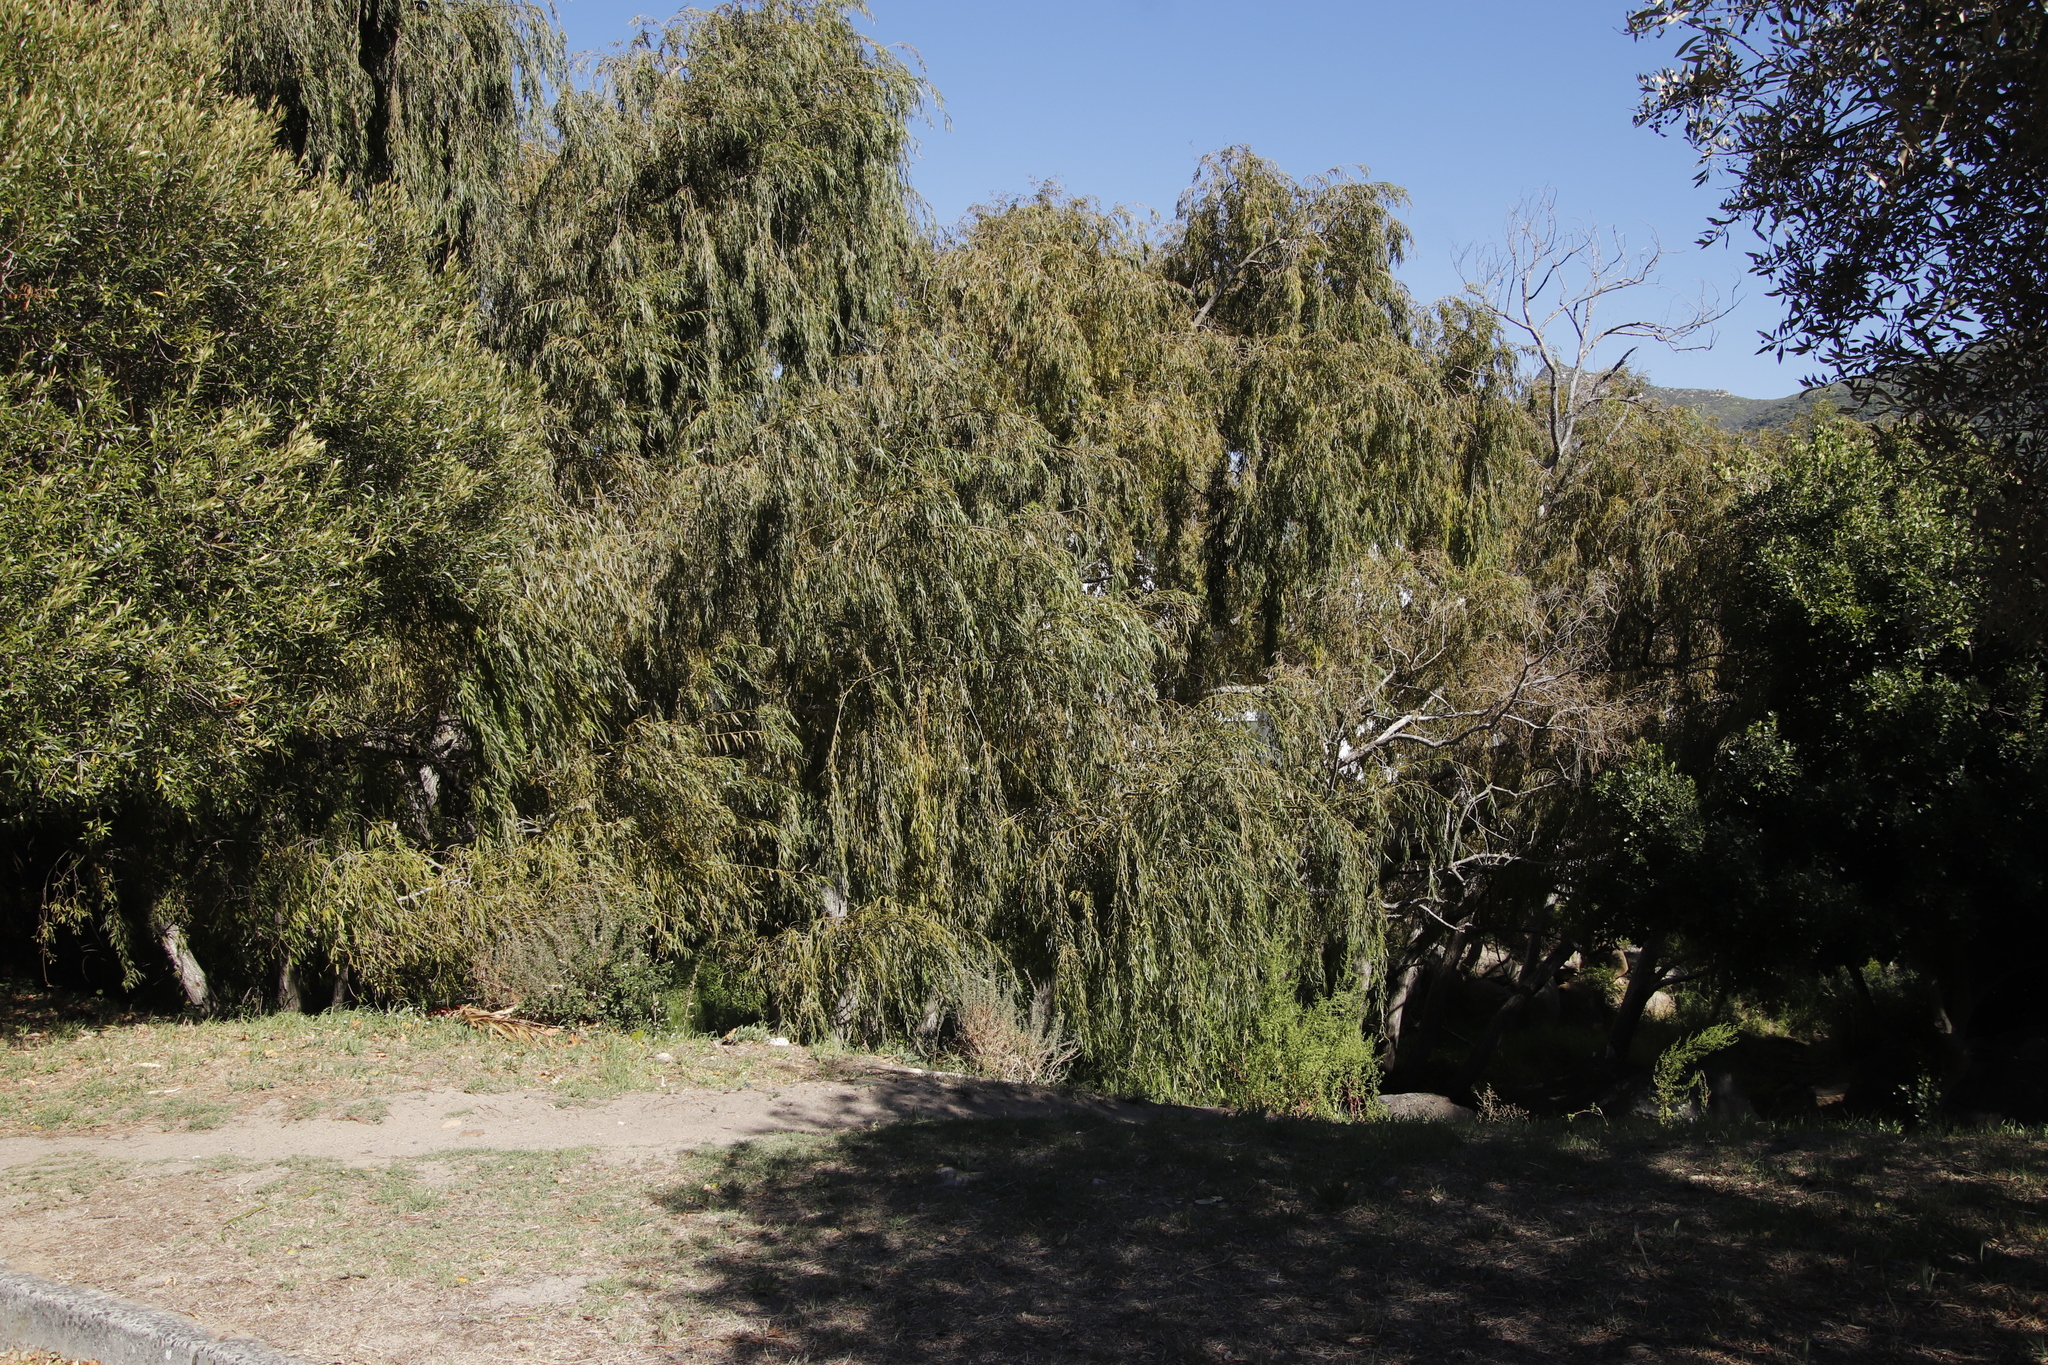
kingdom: Plantae
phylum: Tracheophyta
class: Magnoliopsida
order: Malpighiales
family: Salicaceae
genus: Salix
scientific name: Salix babylonica
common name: Weeping willow
